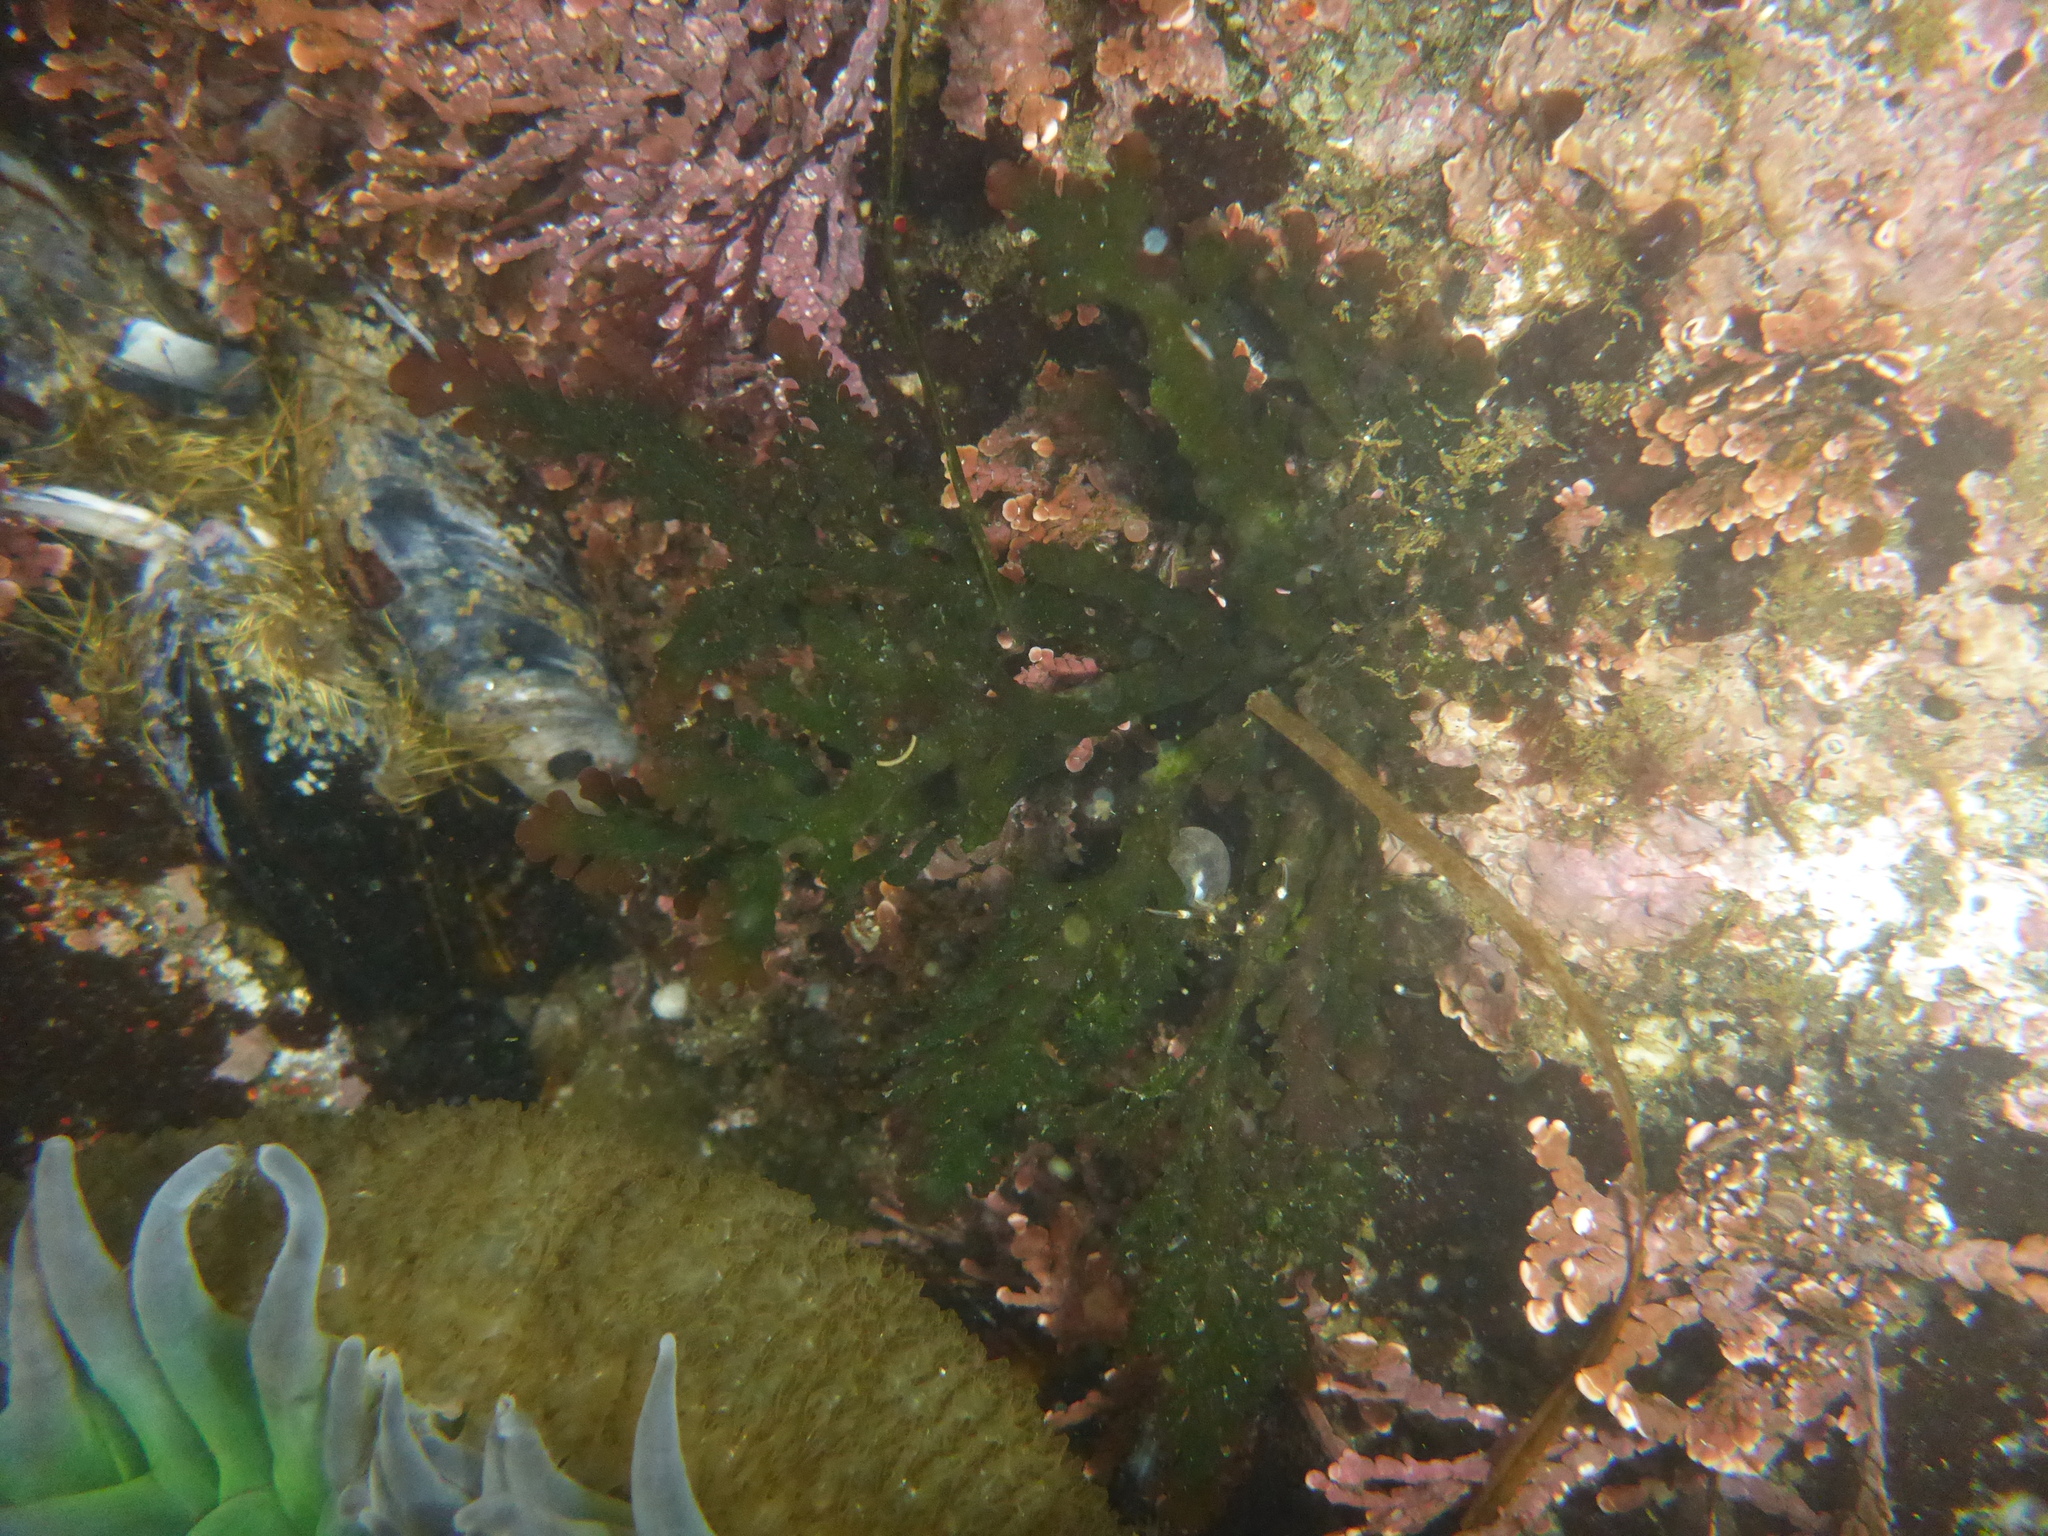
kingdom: Plantae
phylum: Rhodophyta
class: Florideophyceae
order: Ceramiales
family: Rhodomelaceae
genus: Osmundea
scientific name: Osmundea spectabilis
